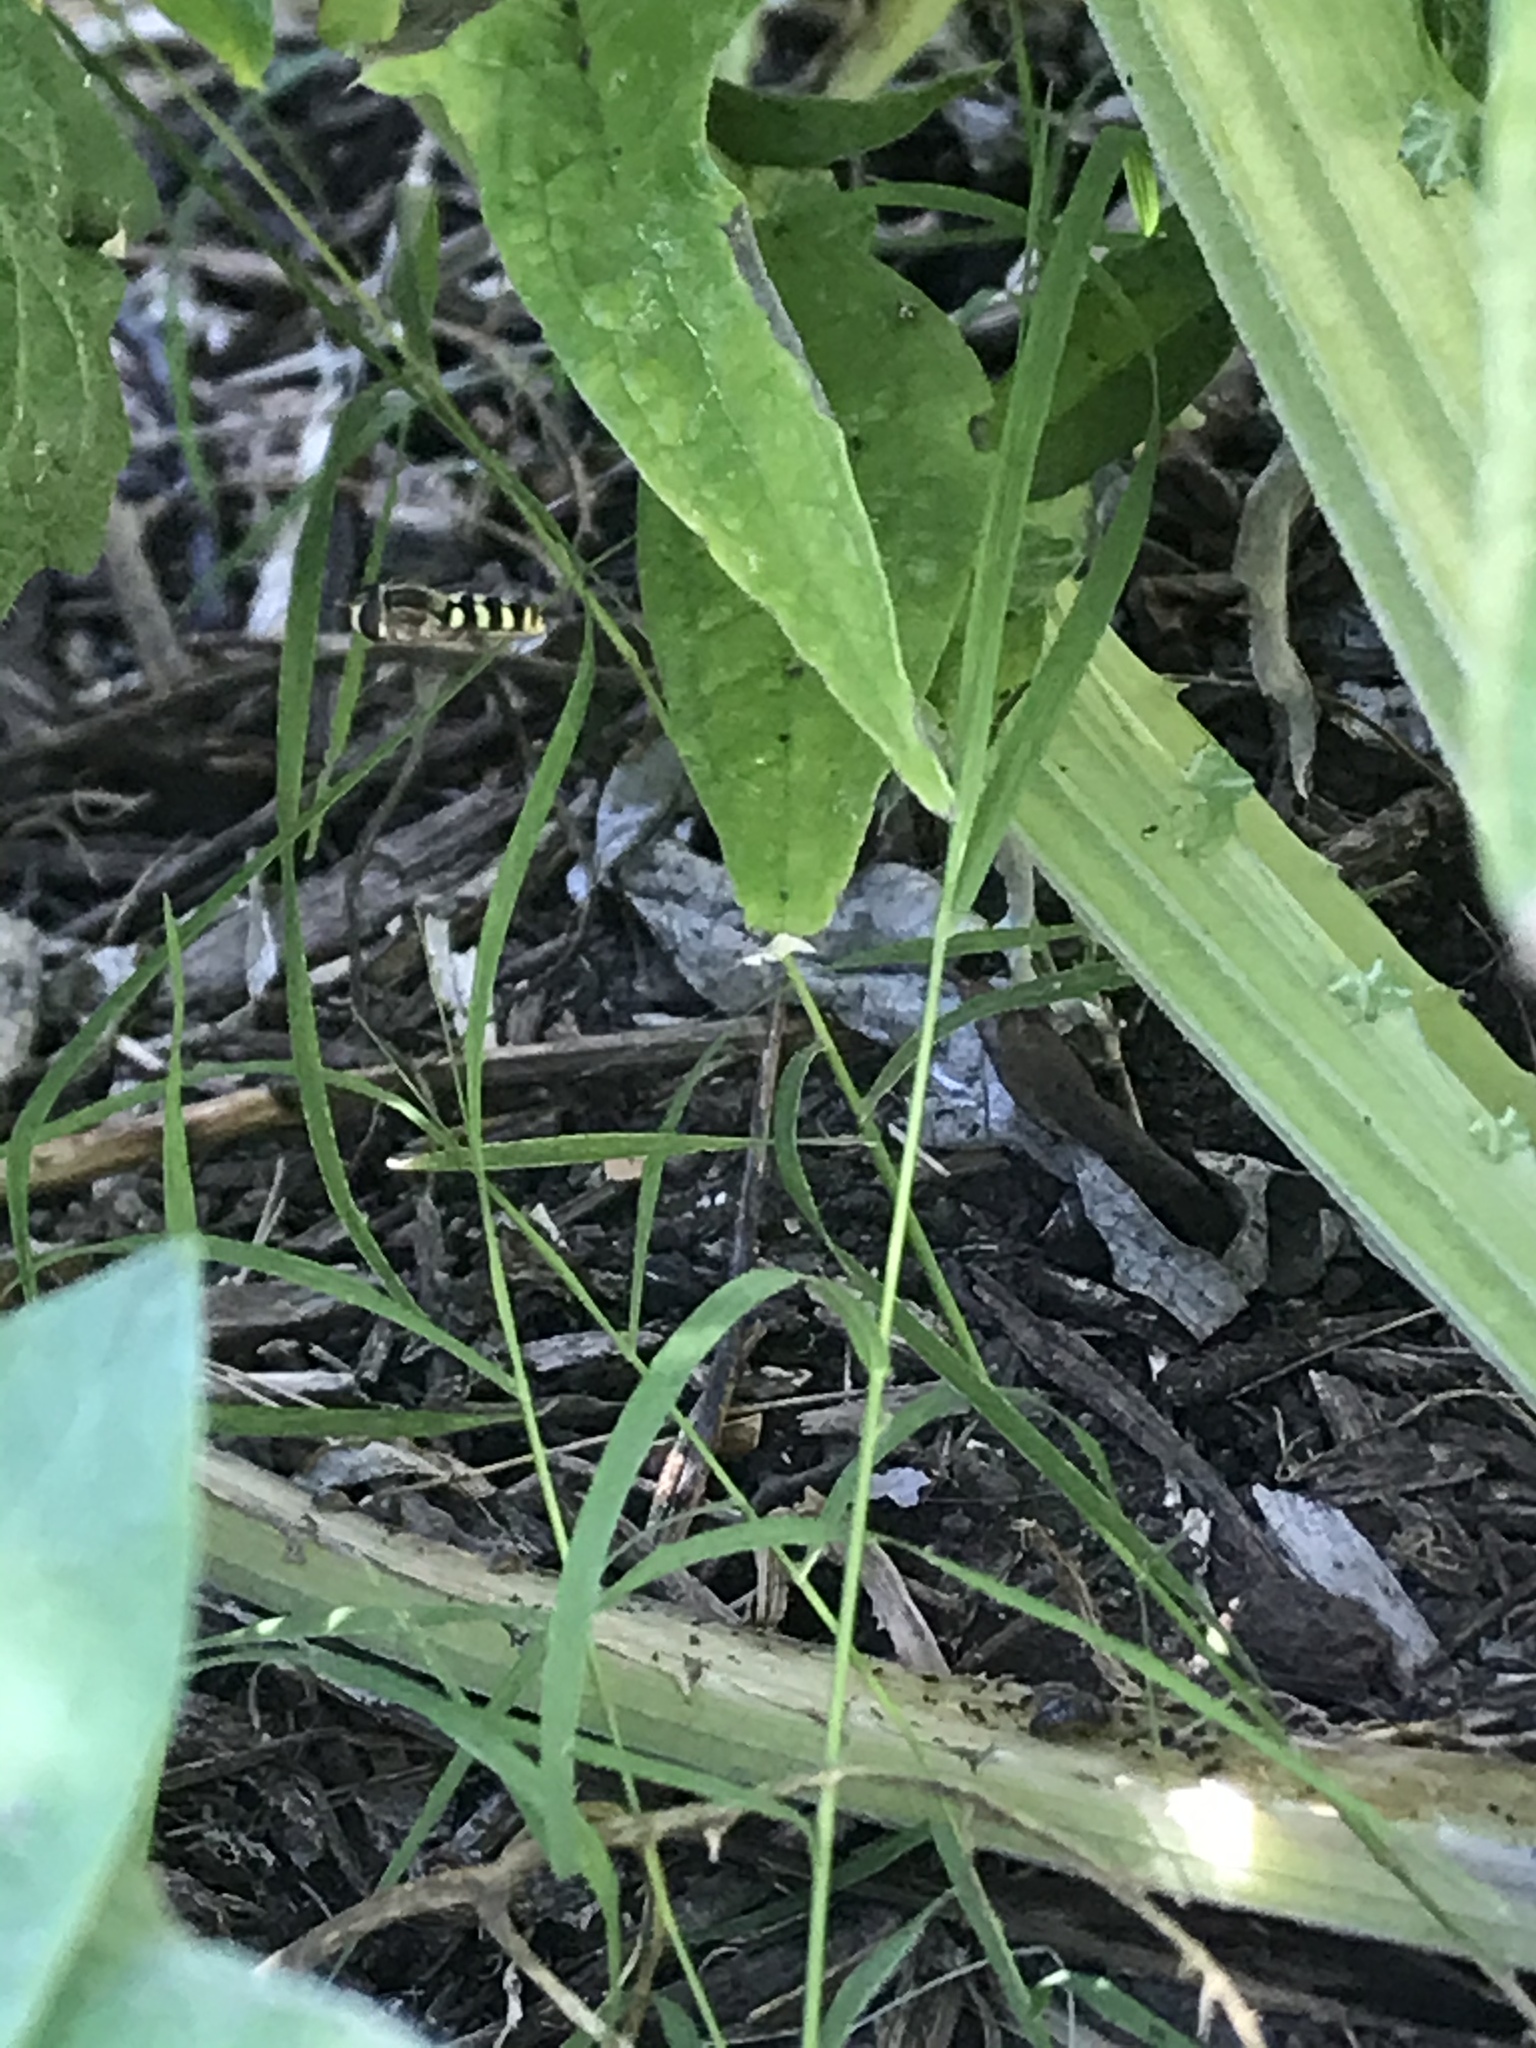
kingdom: Animalia
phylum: Arthropoda
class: Insecta
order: Diptera
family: Syrphidae
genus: Eupeodes
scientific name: Eupeodes fumipennis
